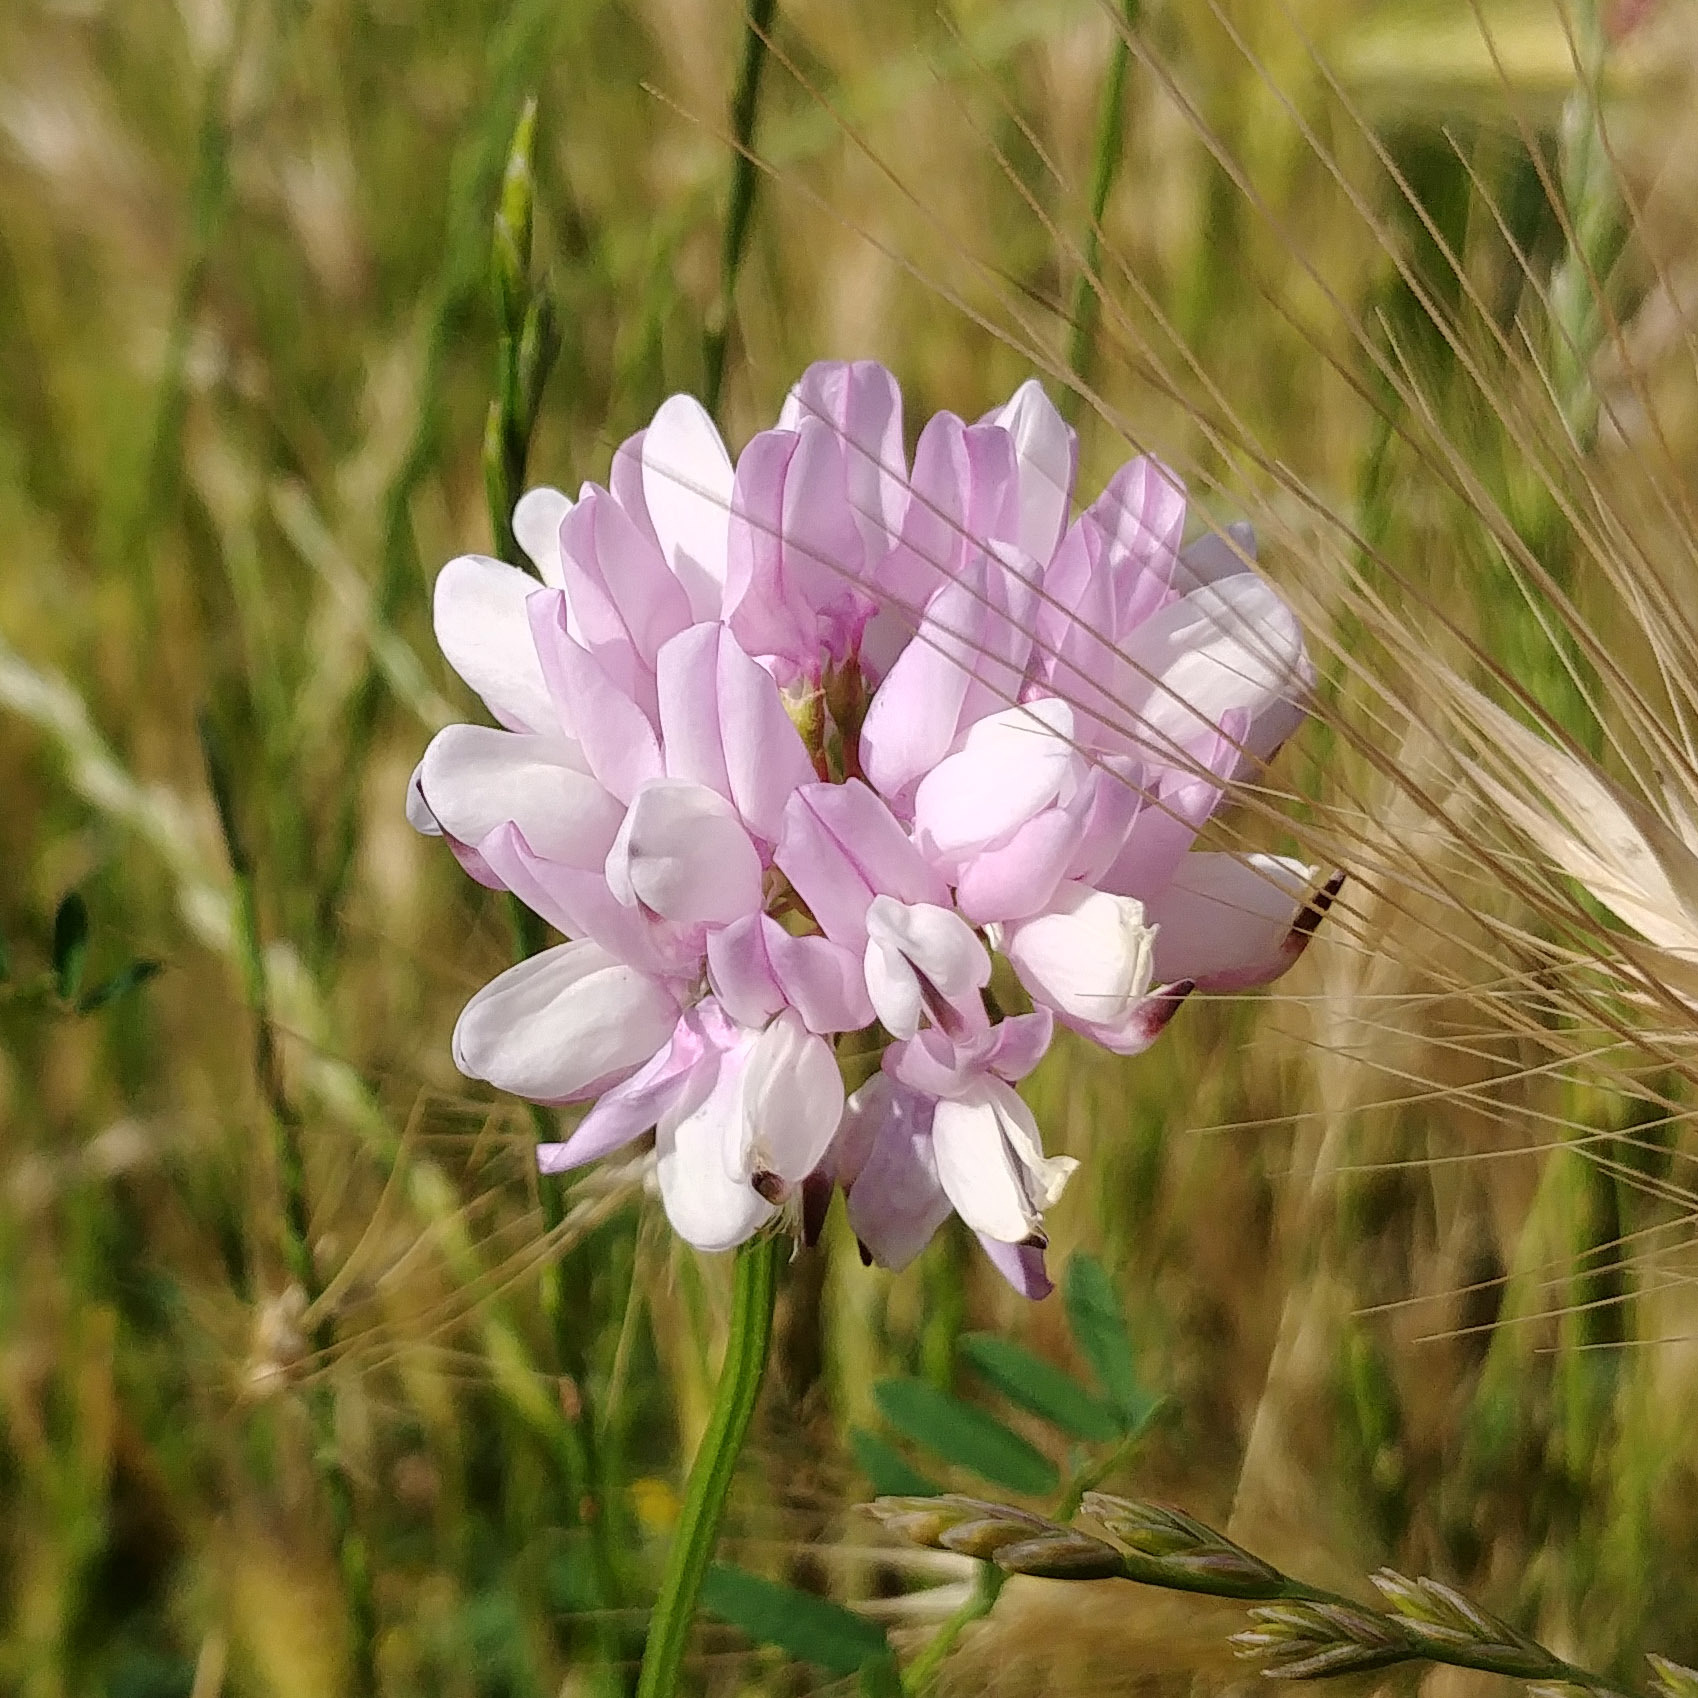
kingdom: Plantae
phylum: Tracheophyta
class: Magnoliopsida
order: Fabales
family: Fabaceae
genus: Coronilla
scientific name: Coronilla varia
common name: Crownvetch
